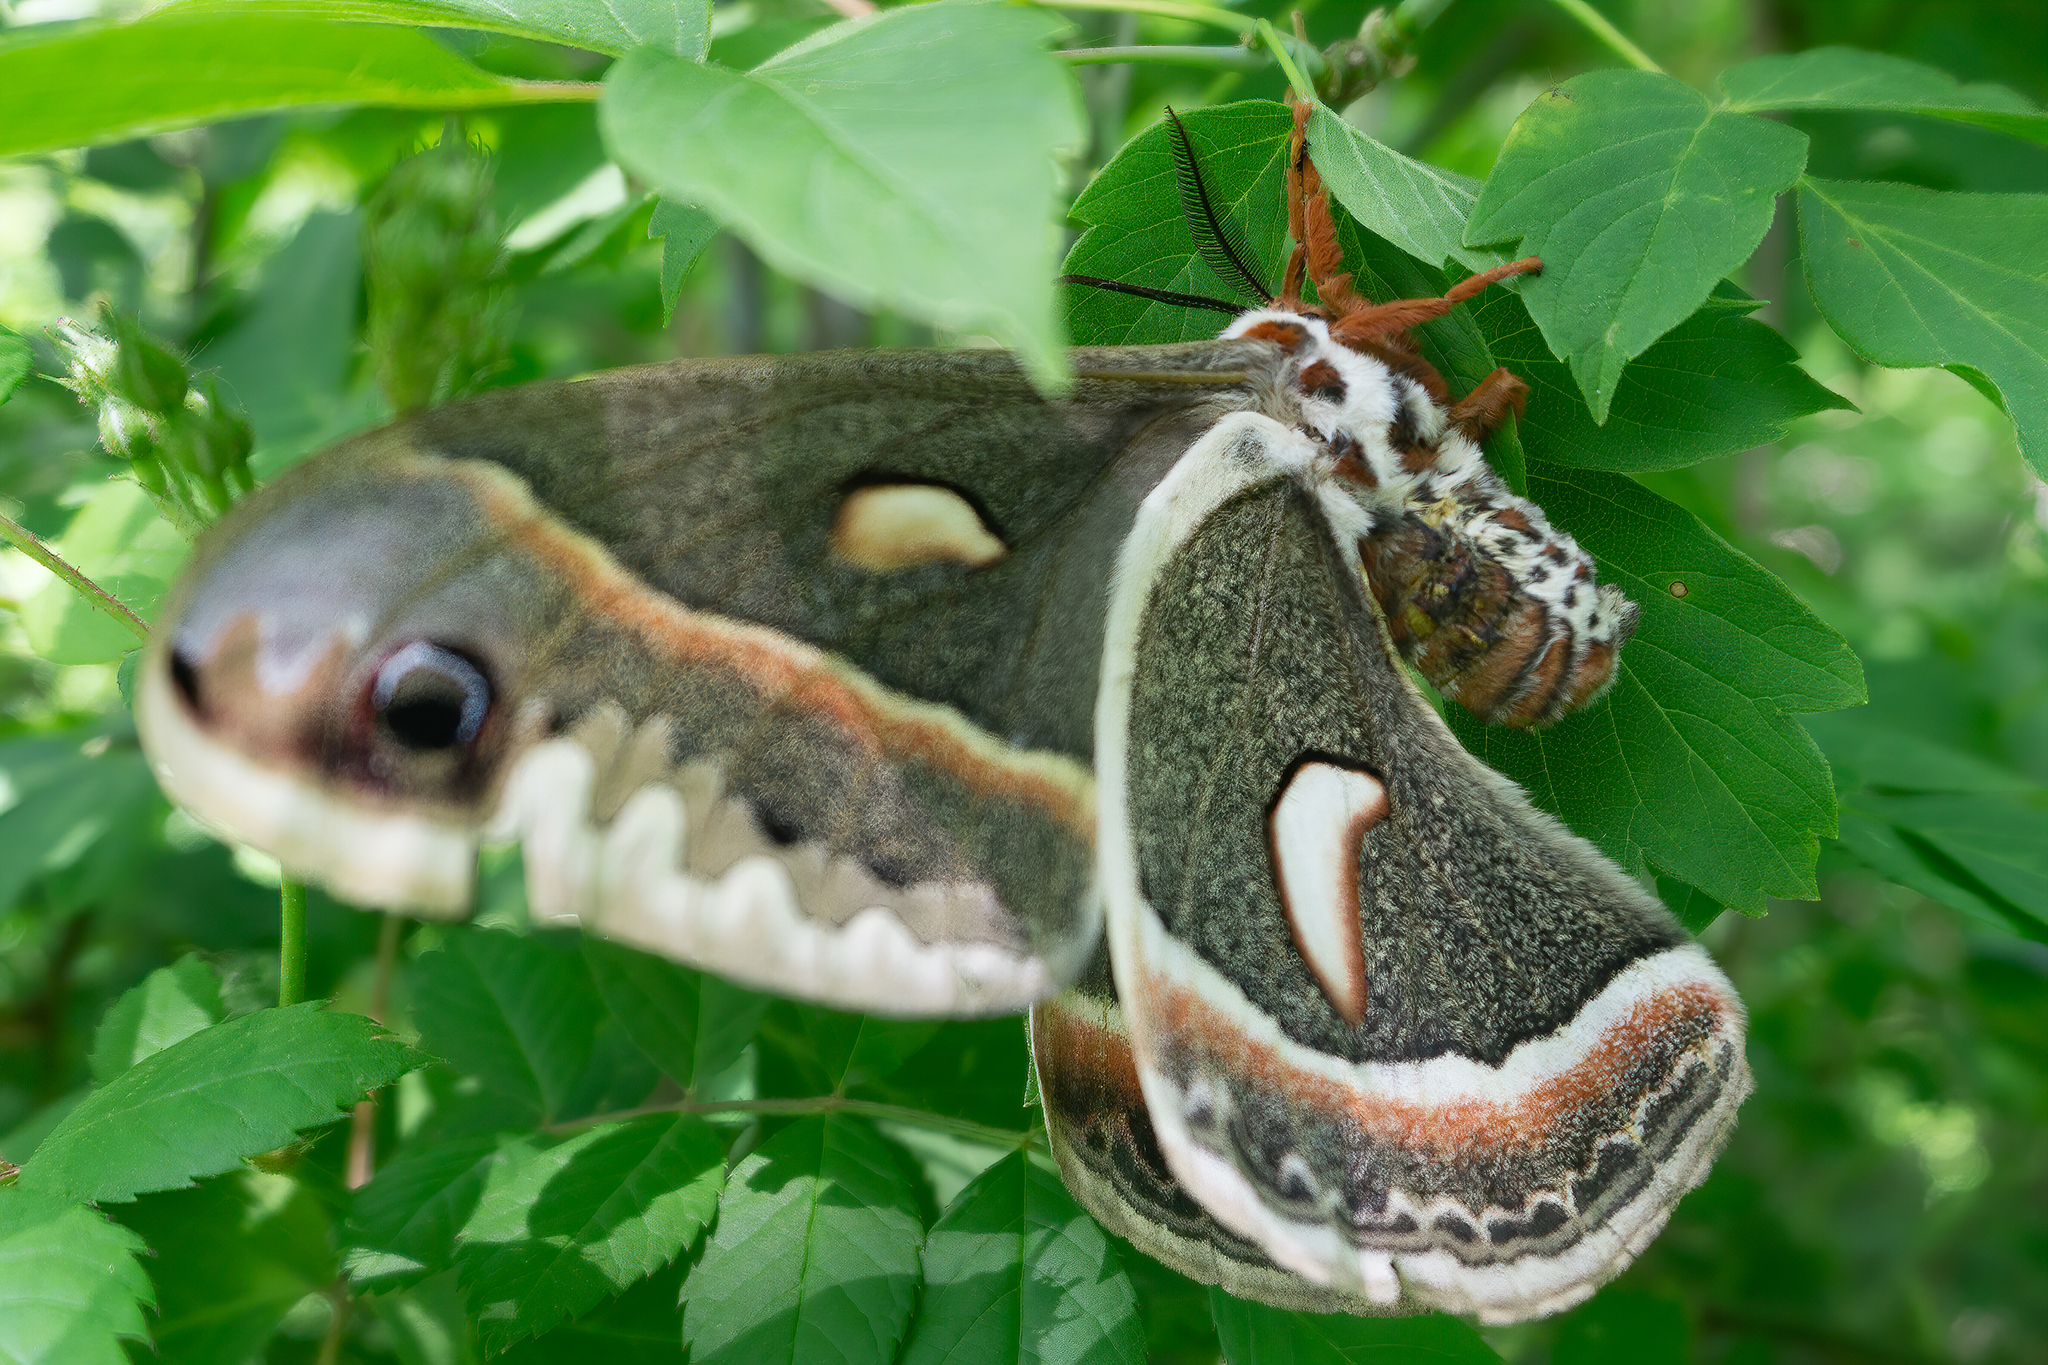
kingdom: Animalia
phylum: Arthropoda
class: Insecta
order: Lepidoptera
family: Saturniidae
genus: Hyalophora
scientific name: Hyalophora cecropia
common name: Cecropia silkmoth
